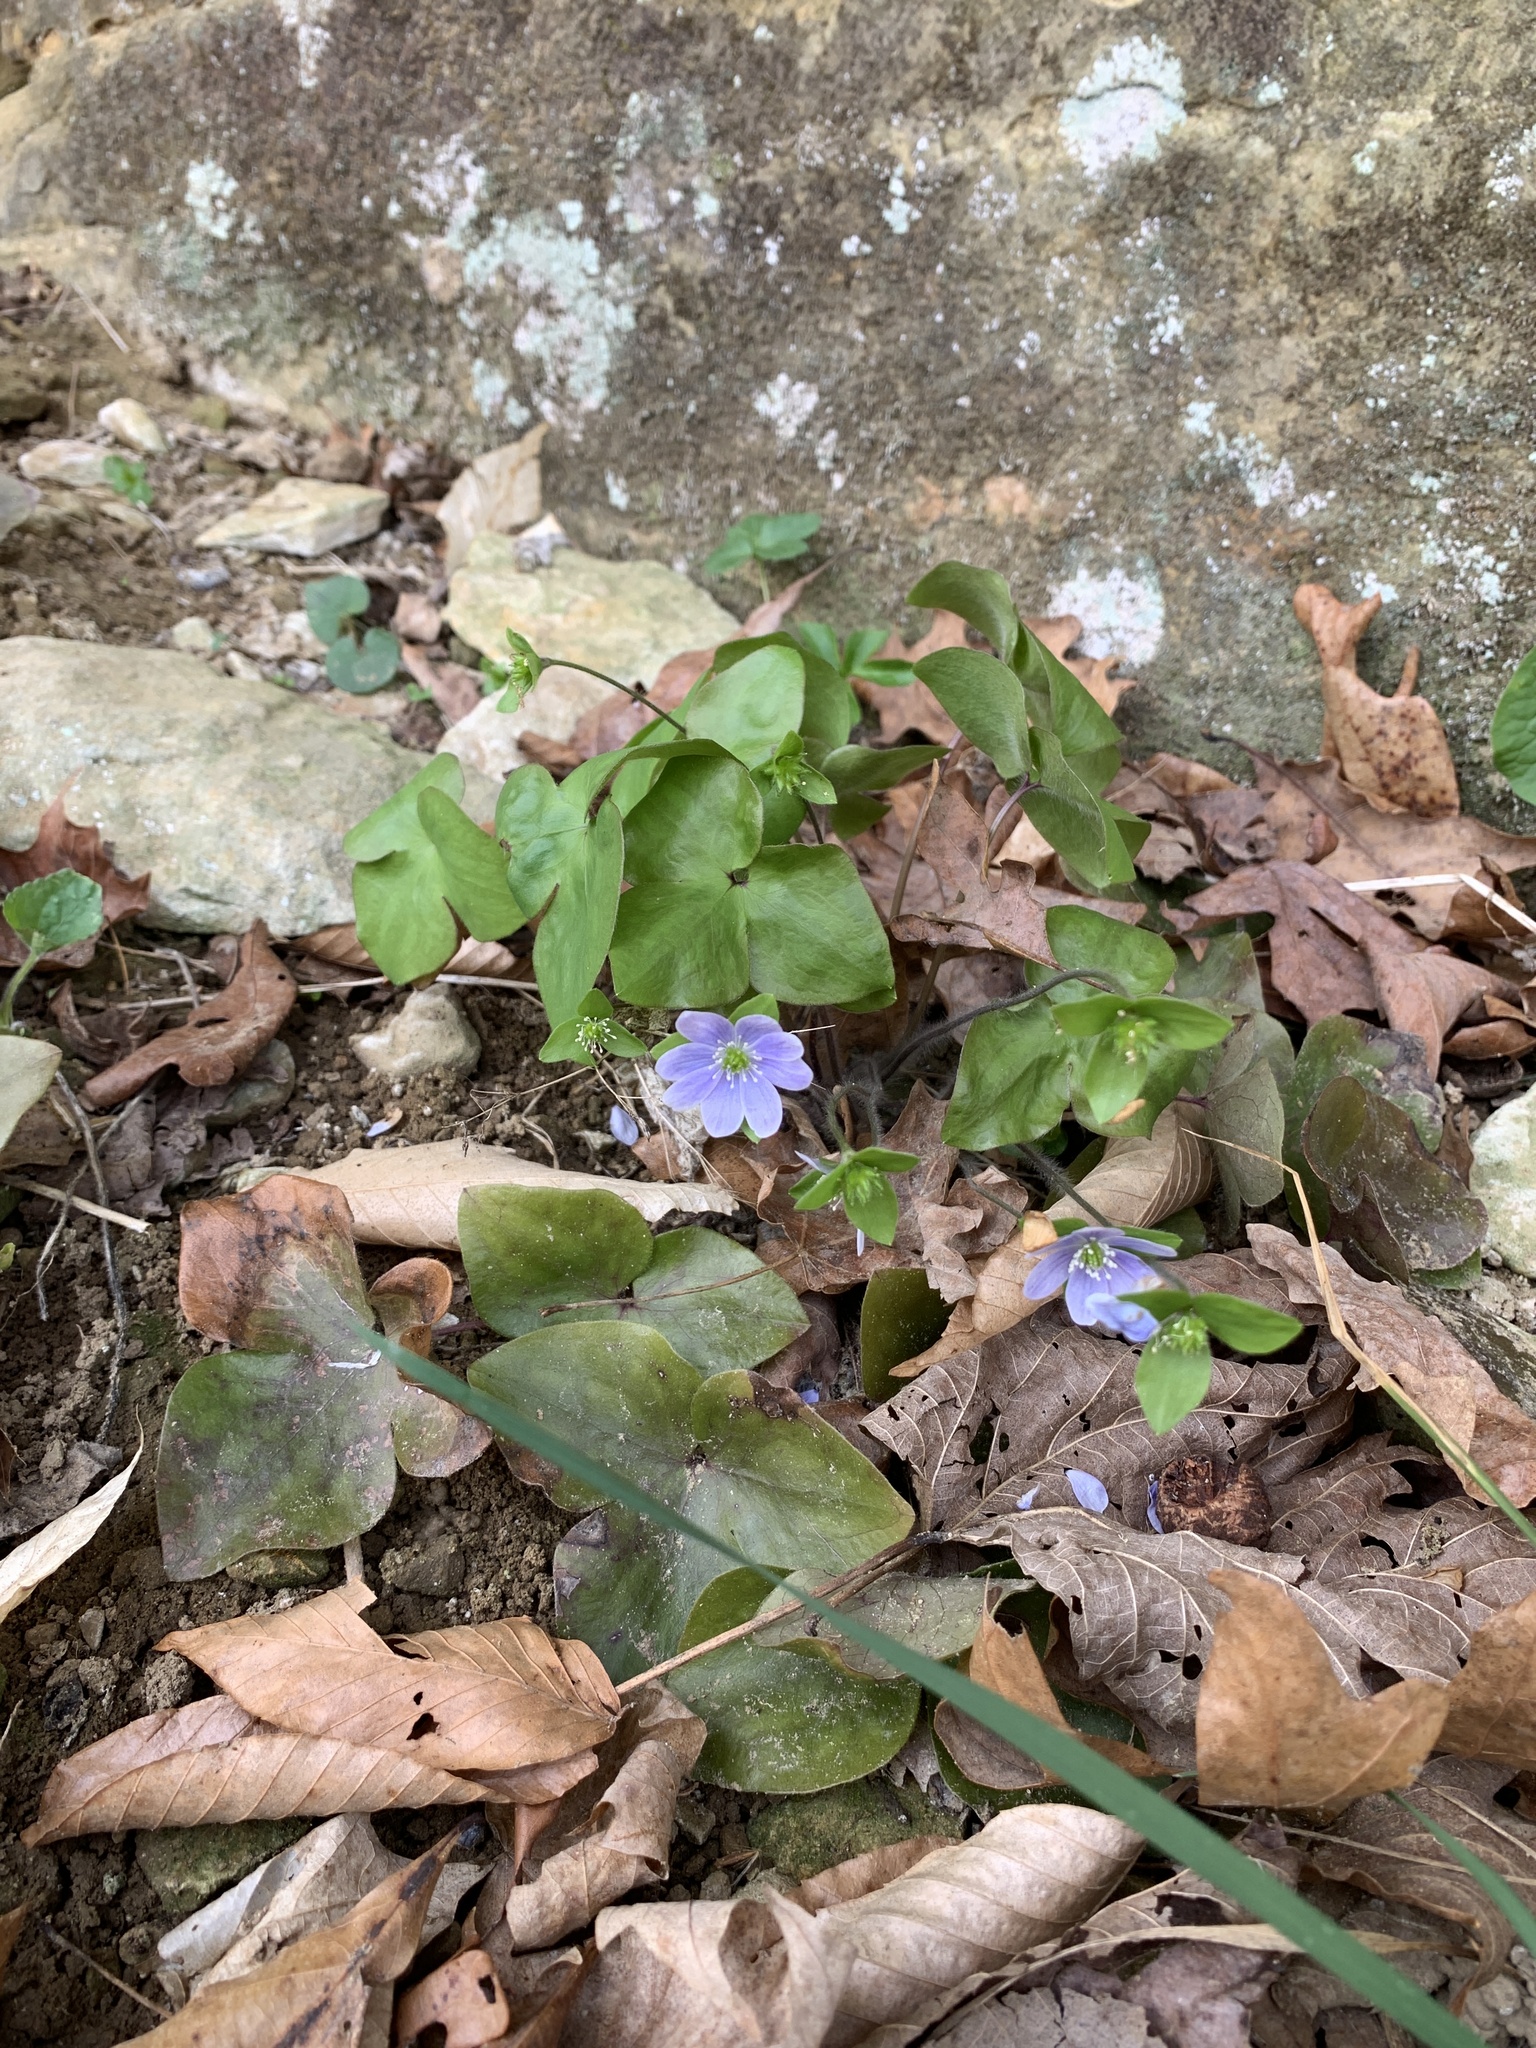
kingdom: Plantae
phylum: Tracheophyta
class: Magnoliopsida
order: Ranunculales
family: Ranunculaceae
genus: Hepatica
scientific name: Hepatica acutiloba
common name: Sharp-lobed hepatica
